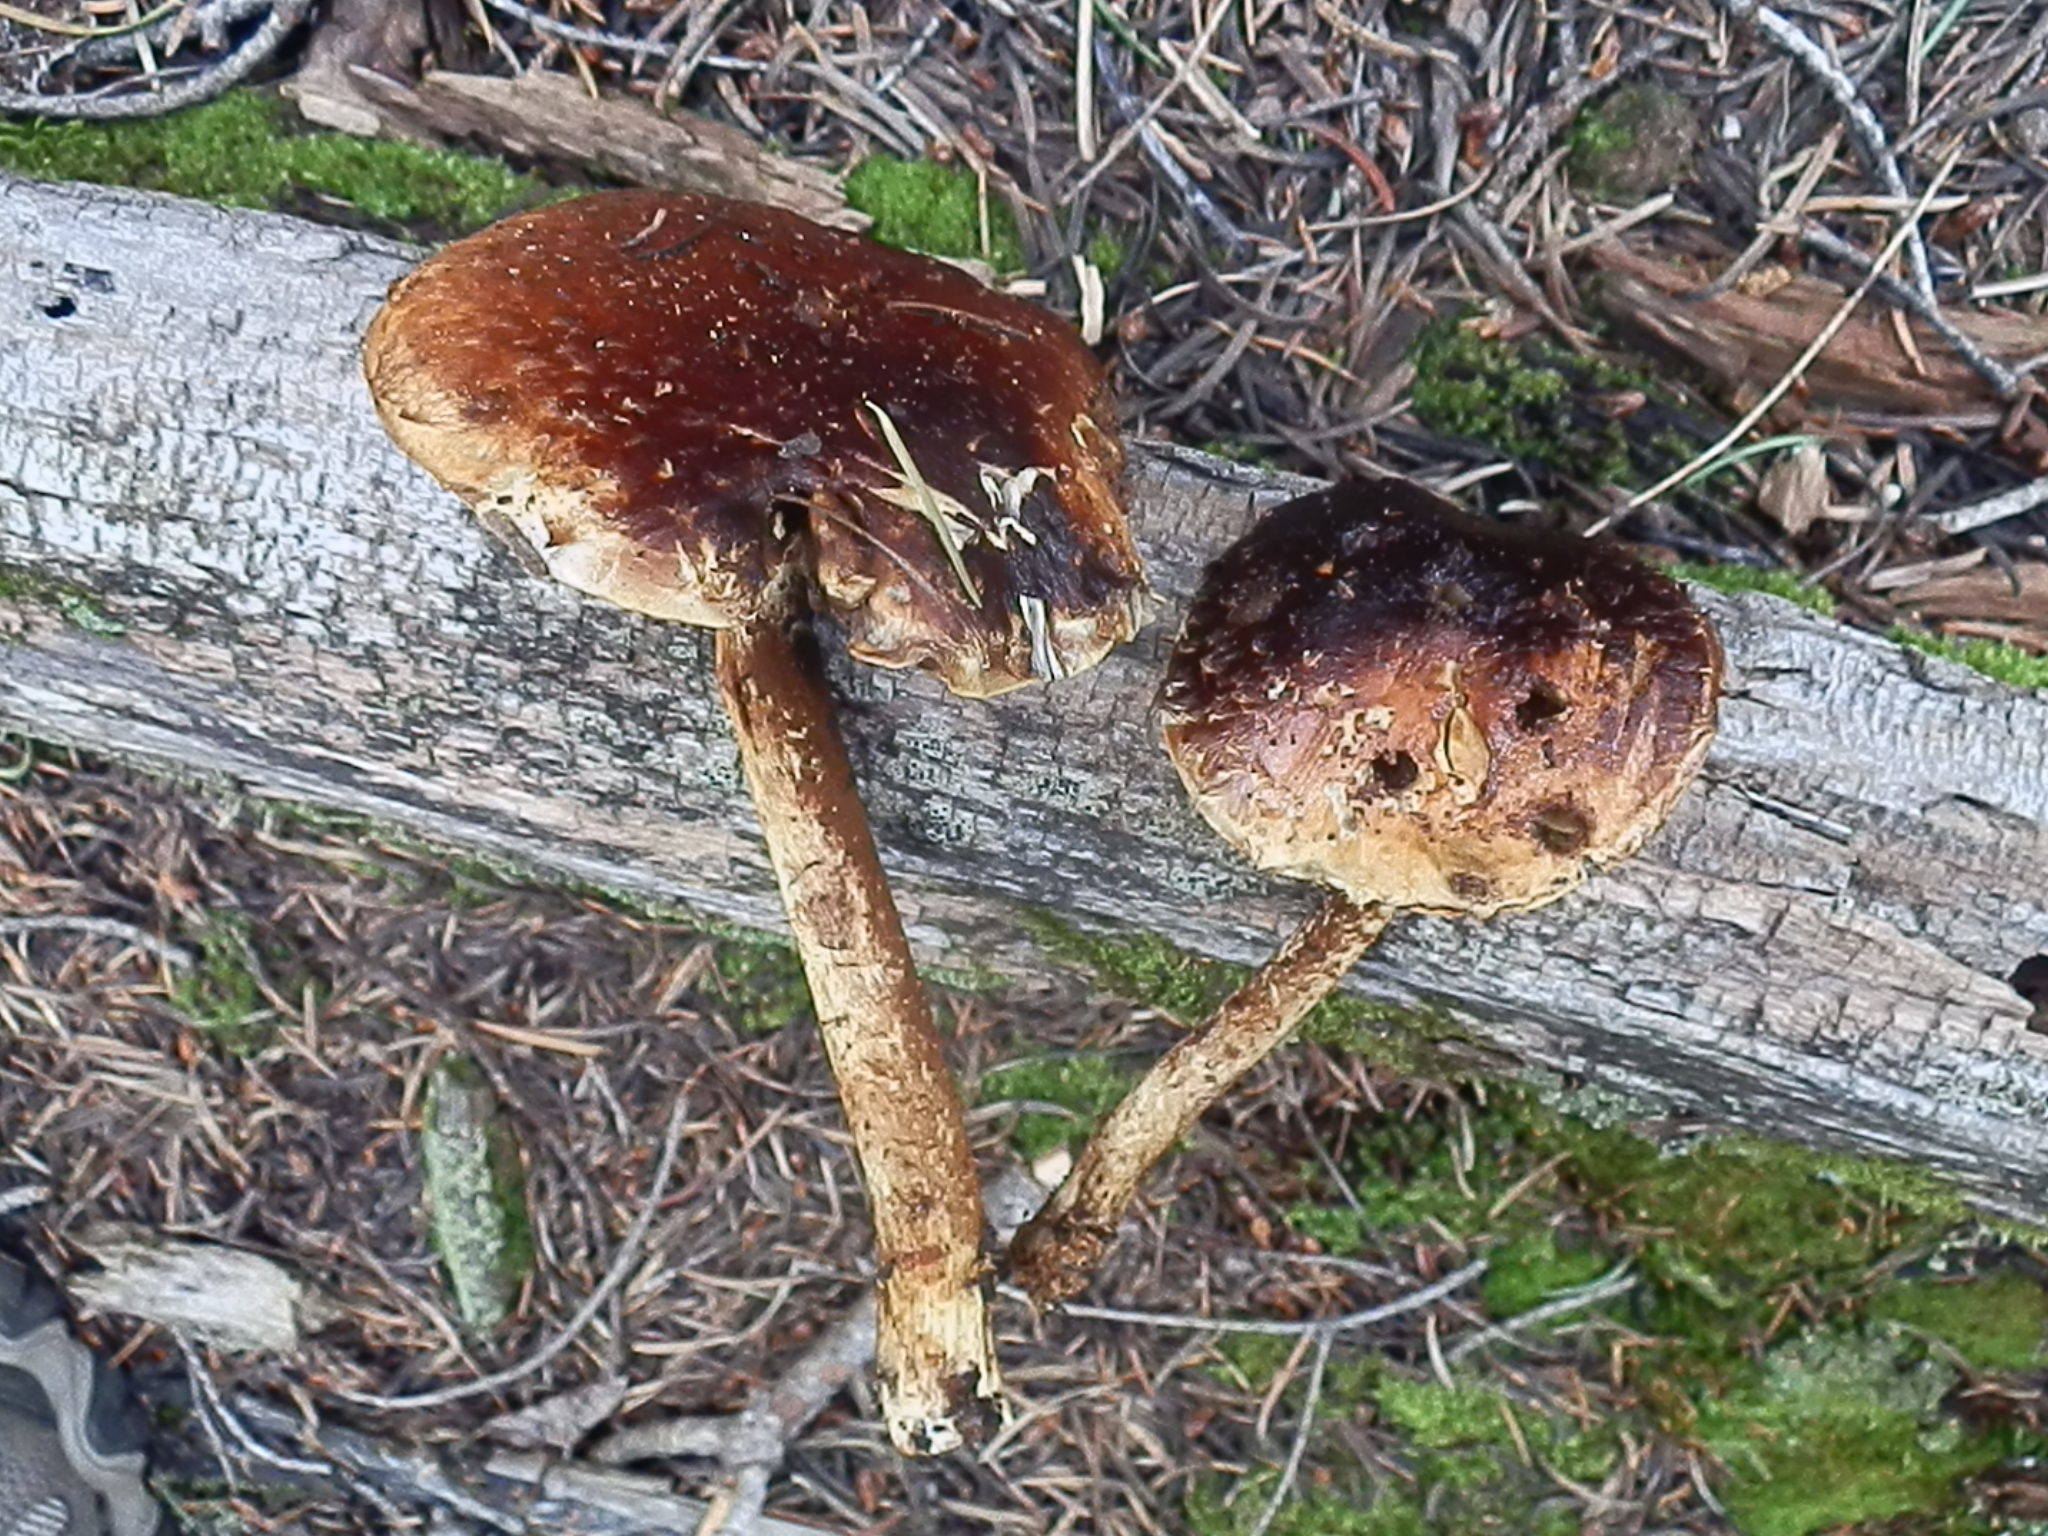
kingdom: Fungi
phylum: Basidiomycota
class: Agaricomycetes
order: Agaricales
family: Tubariaceae
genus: Hemistropharia
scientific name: Hemistropharia albocrenulata
